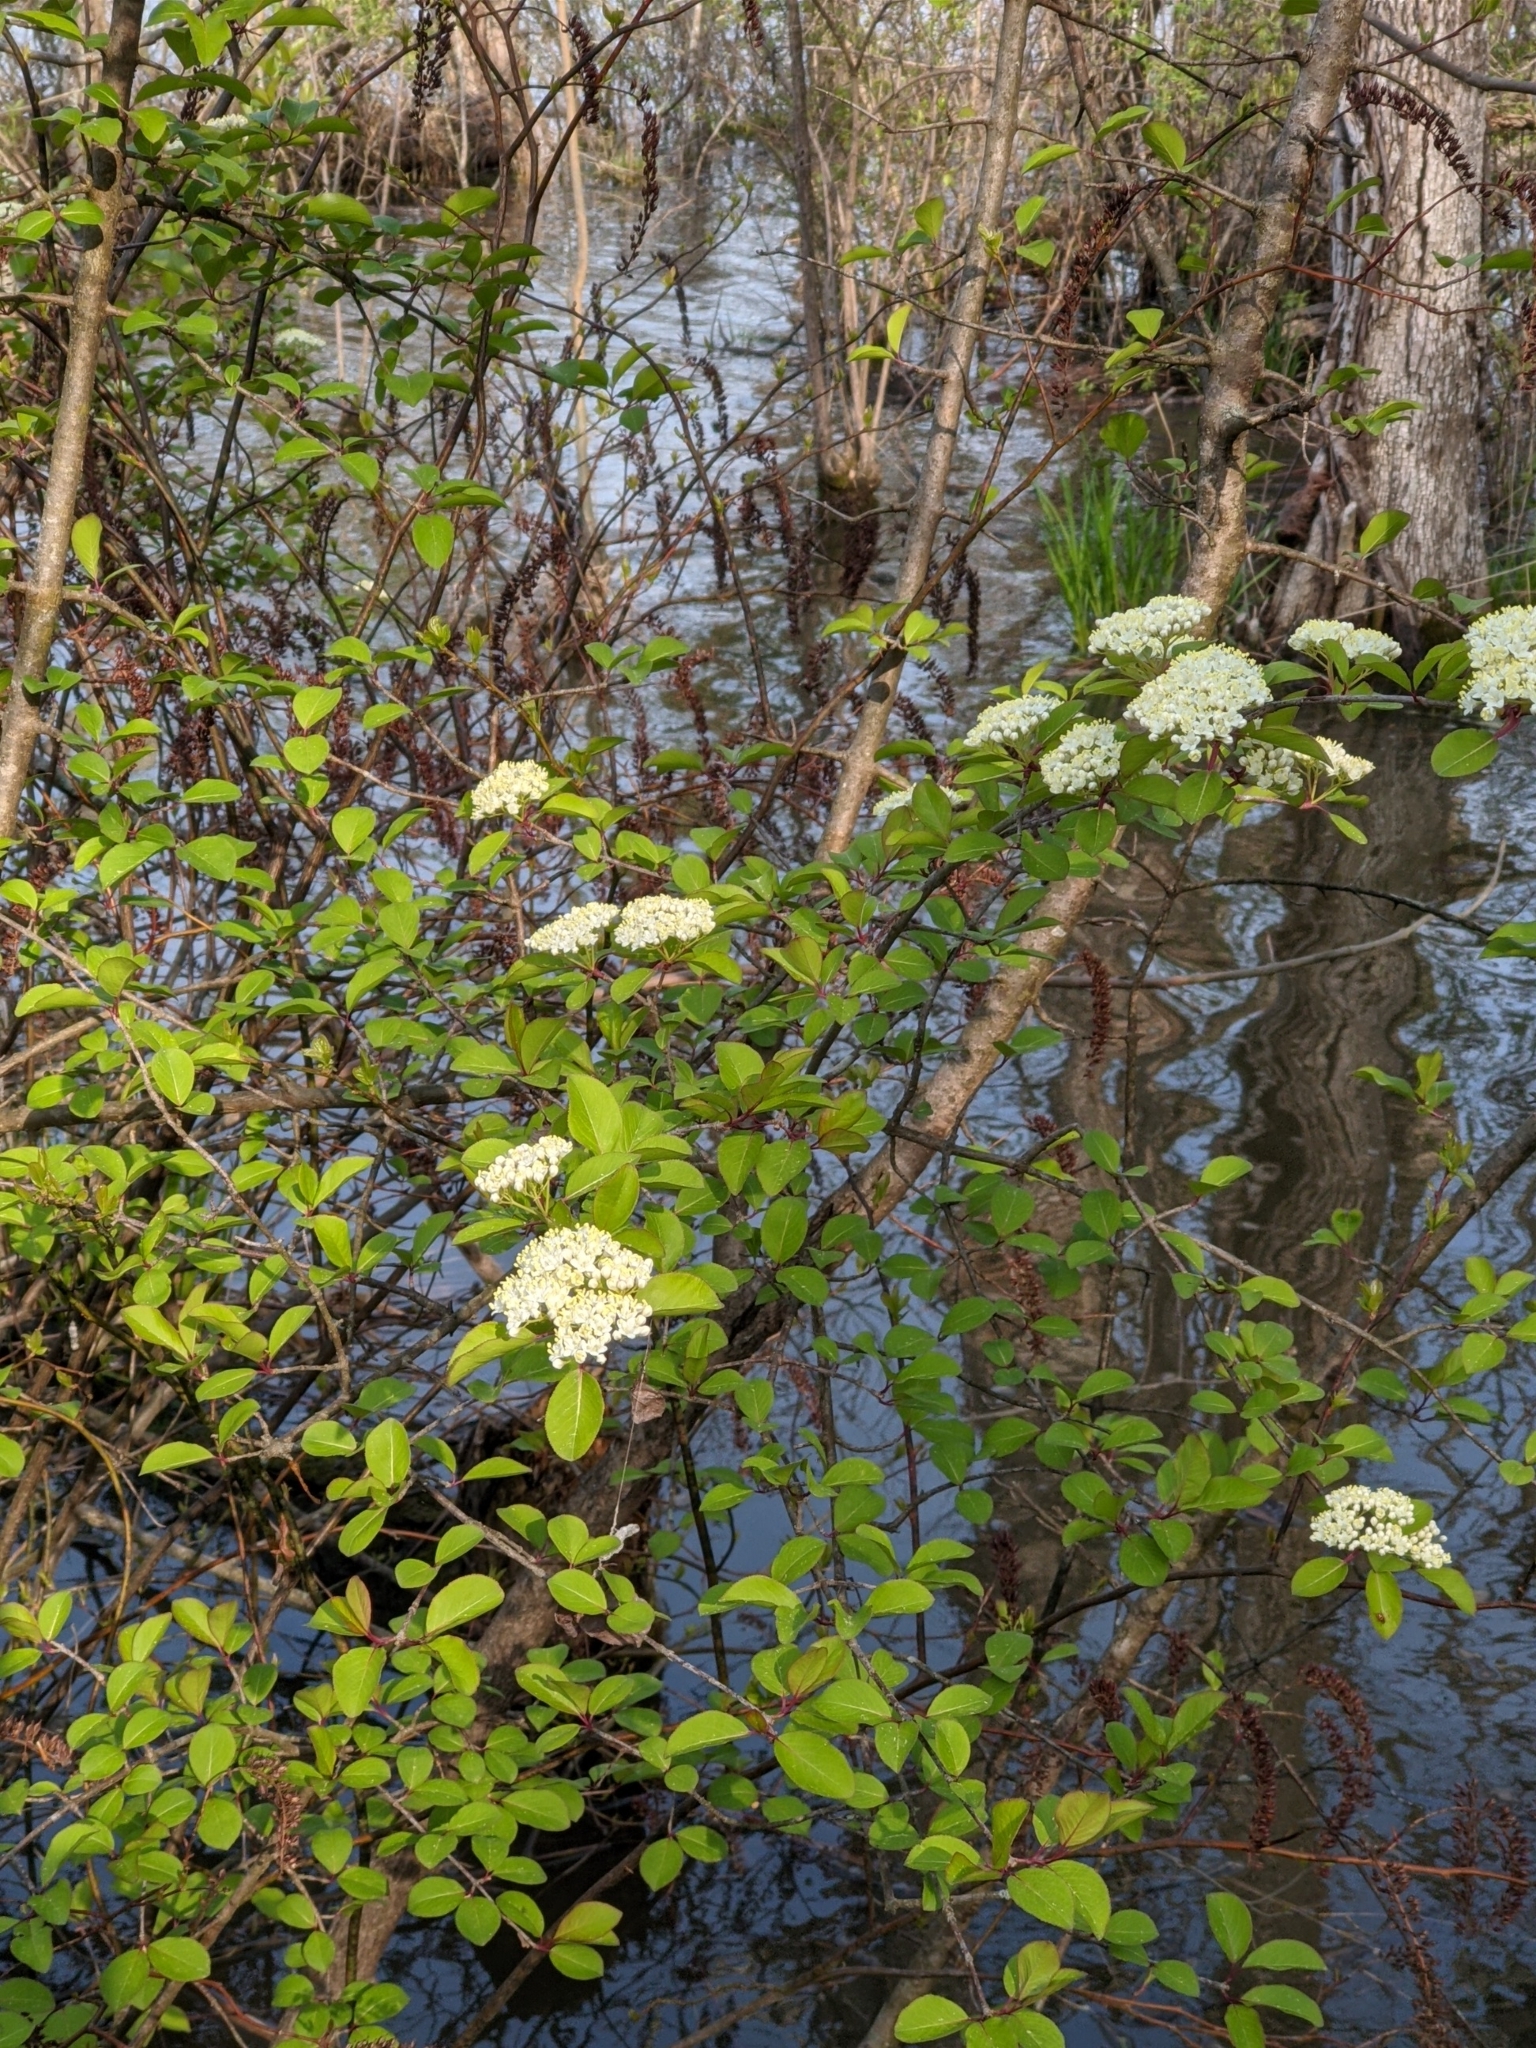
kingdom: Plantae
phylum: Tracheophyta
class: Magnoliopsida
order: Dipsacales
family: Viburnaceae
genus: Viburnum
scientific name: Viburnum prunifolium
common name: Black haw
